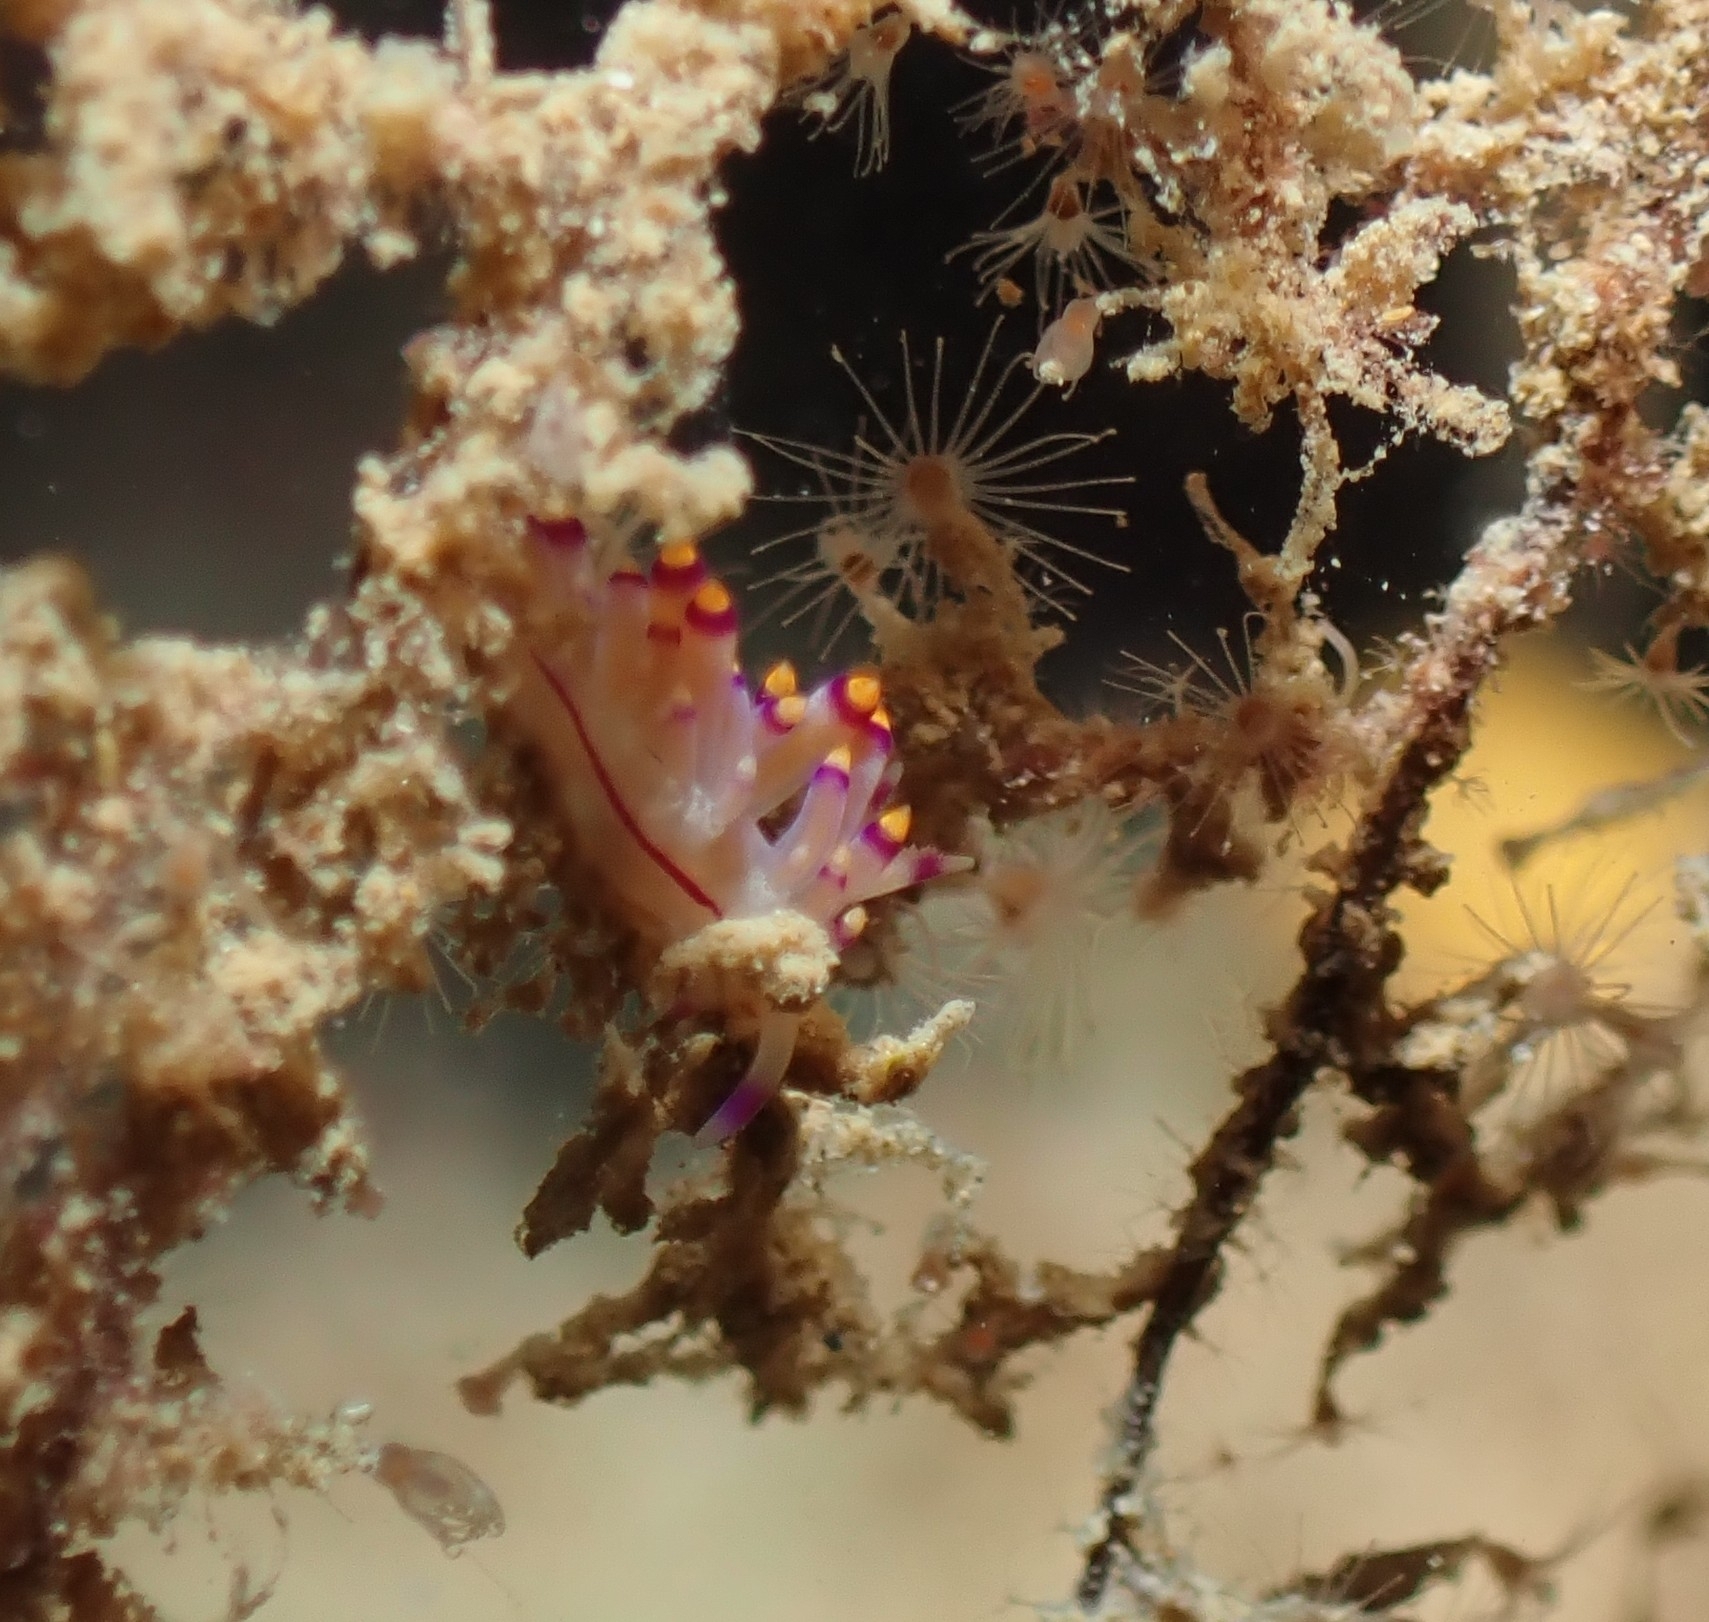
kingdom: Animalia
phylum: Mollusca
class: Gastropoda
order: Nudibranchia
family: Flabellinidae
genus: Coryphellina
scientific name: Coryphellina rubrolineata
